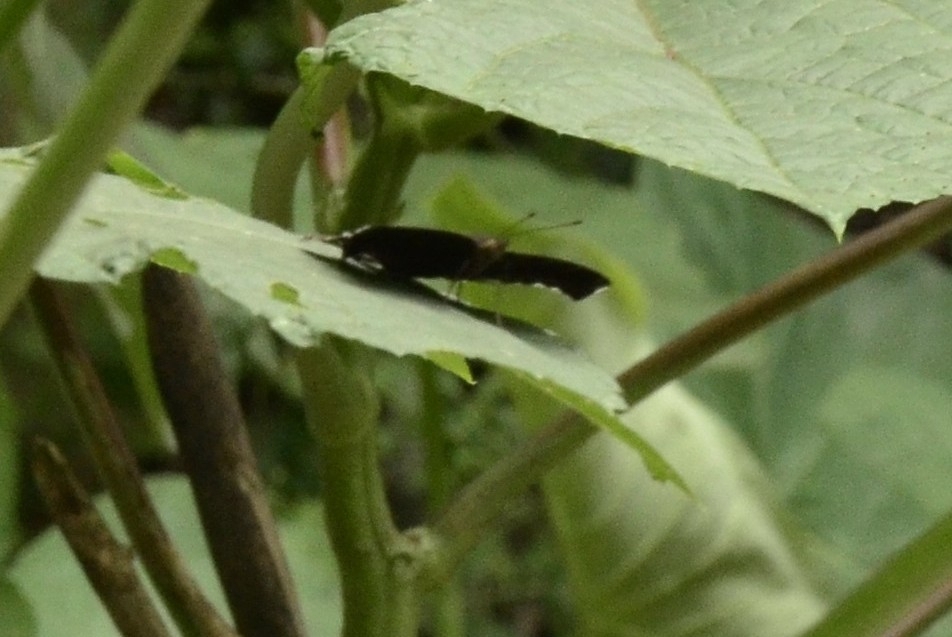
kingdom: Animalia
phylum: Arthropoda
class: Insecta
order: Lepidoptera
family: Nymphalidae
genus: Junonia
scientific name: Junonia iphita
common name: Chocolate pansy
